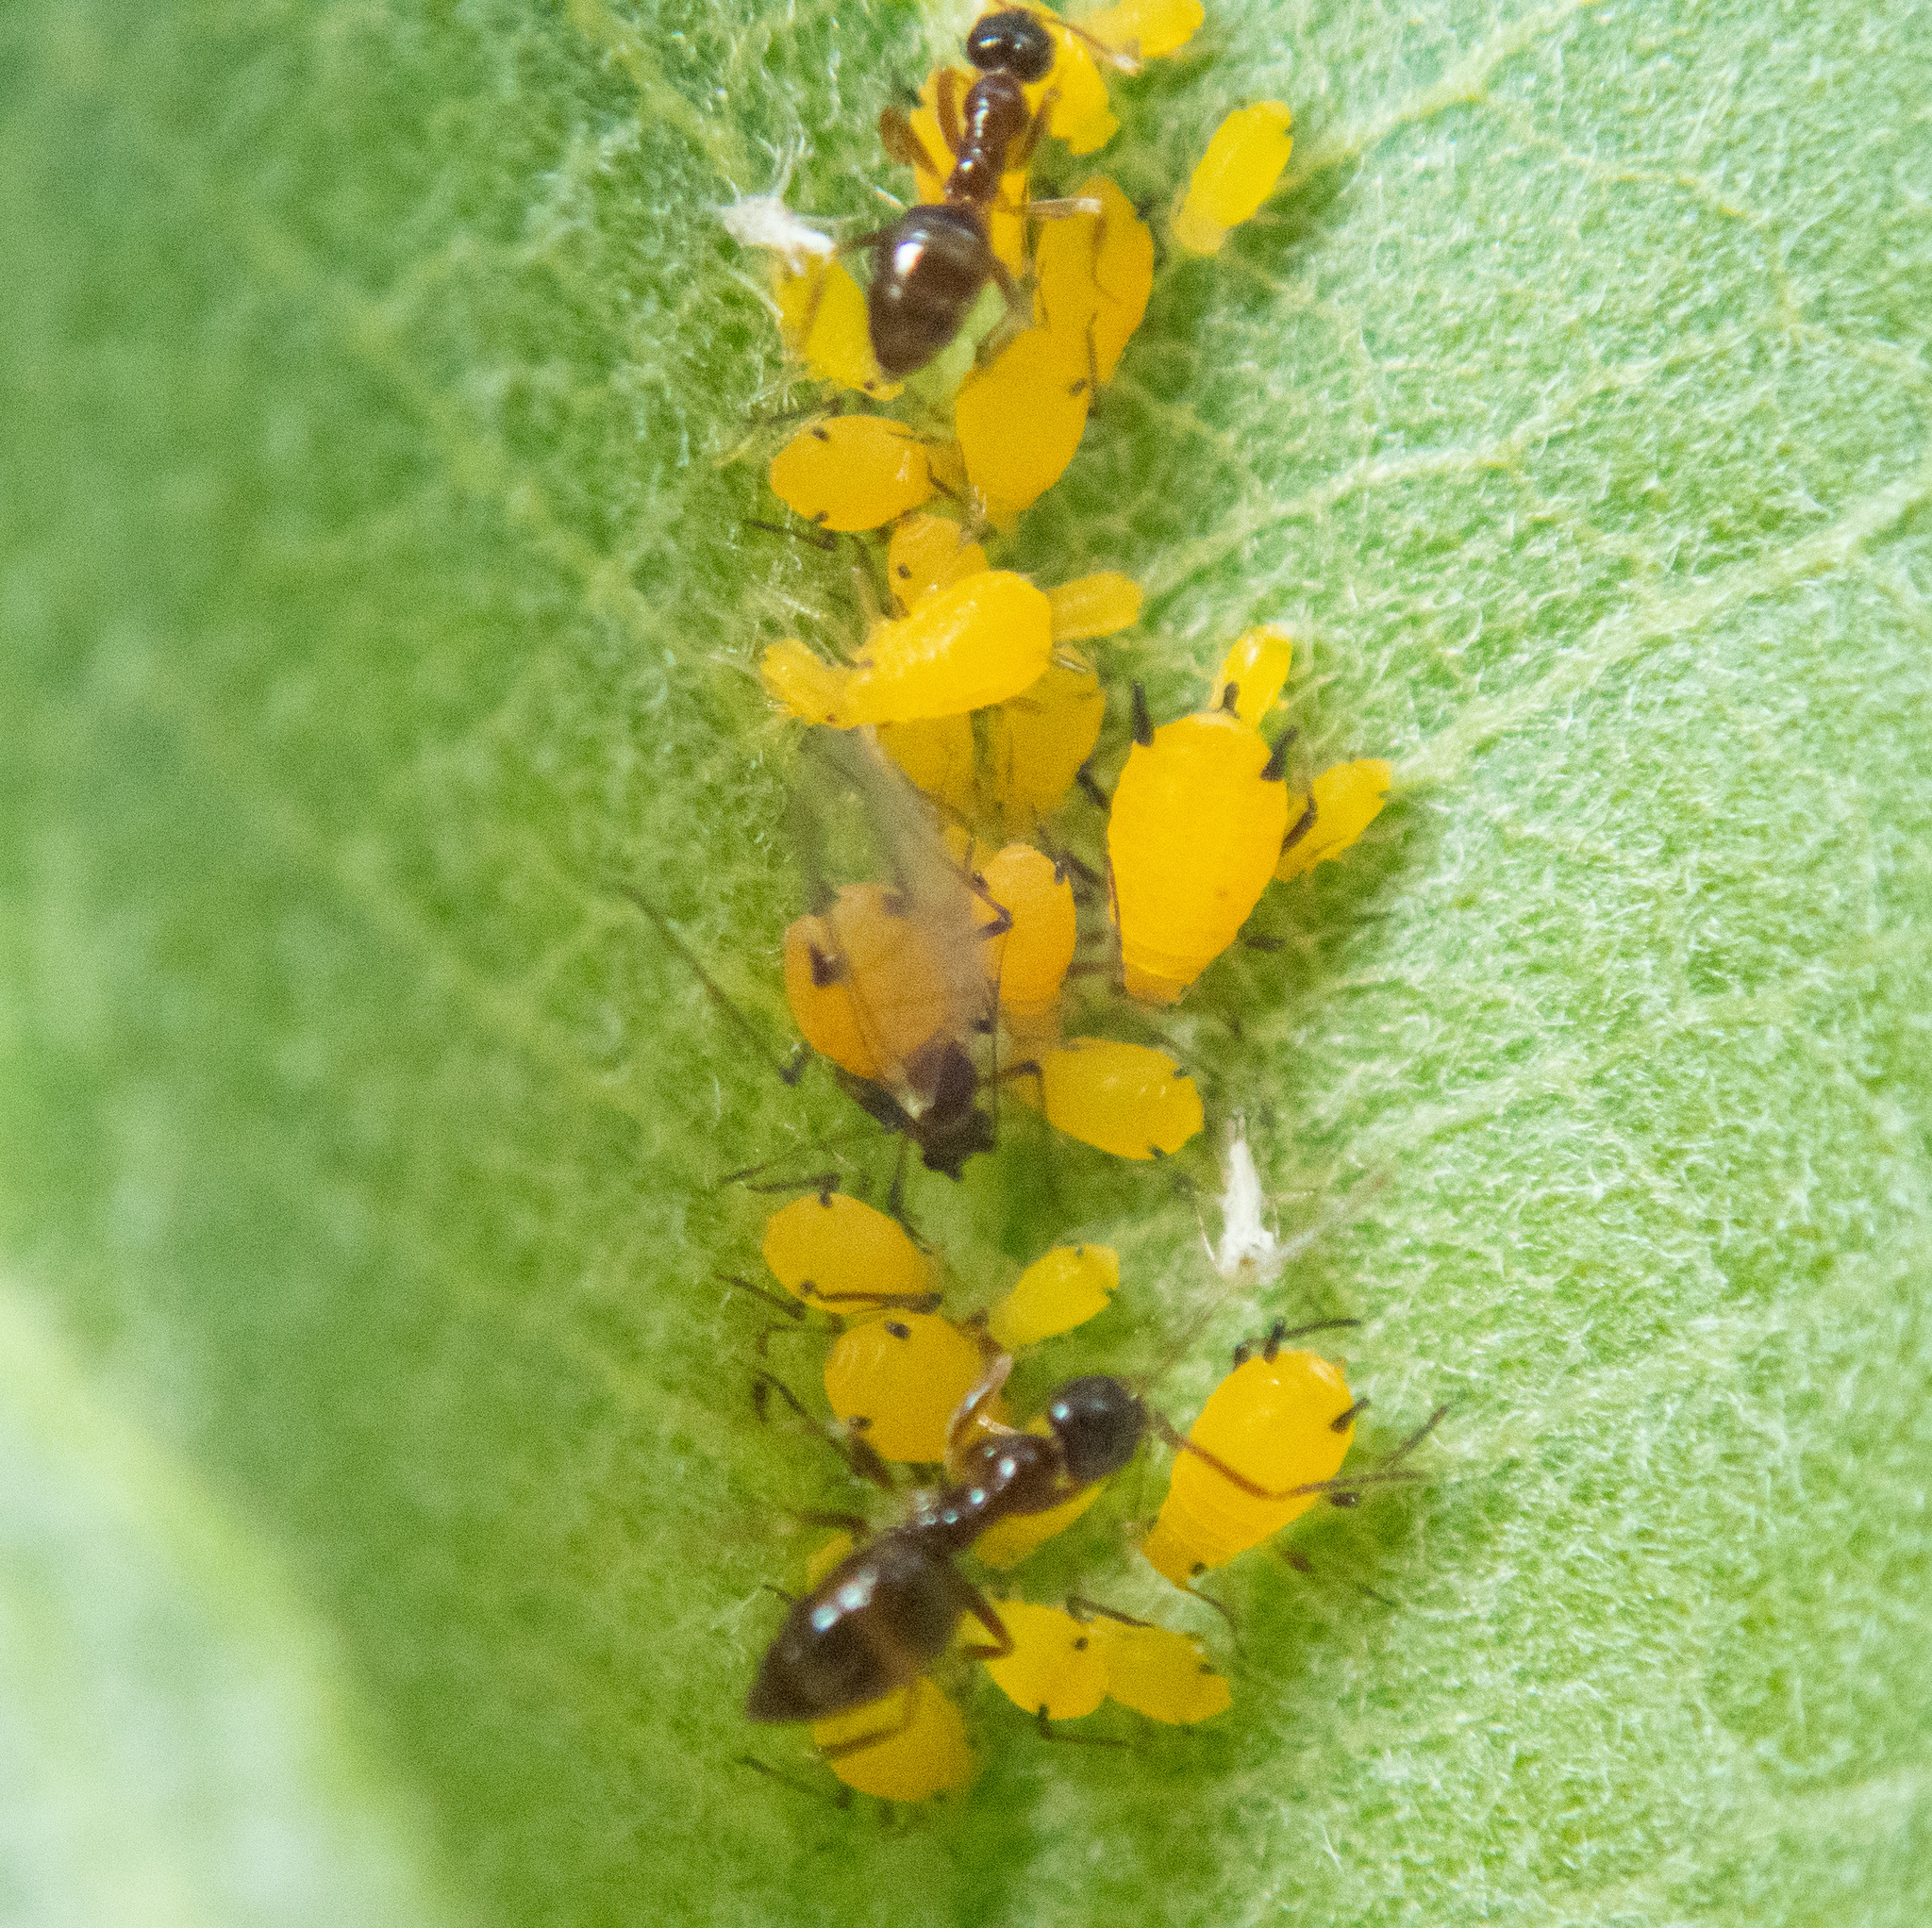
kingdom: Animalia
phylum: Arthropoda
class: Insecta
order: Hemiptera
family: Aphididae
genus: Aphis
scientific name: Aphis nerii
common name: Oleander aphid
